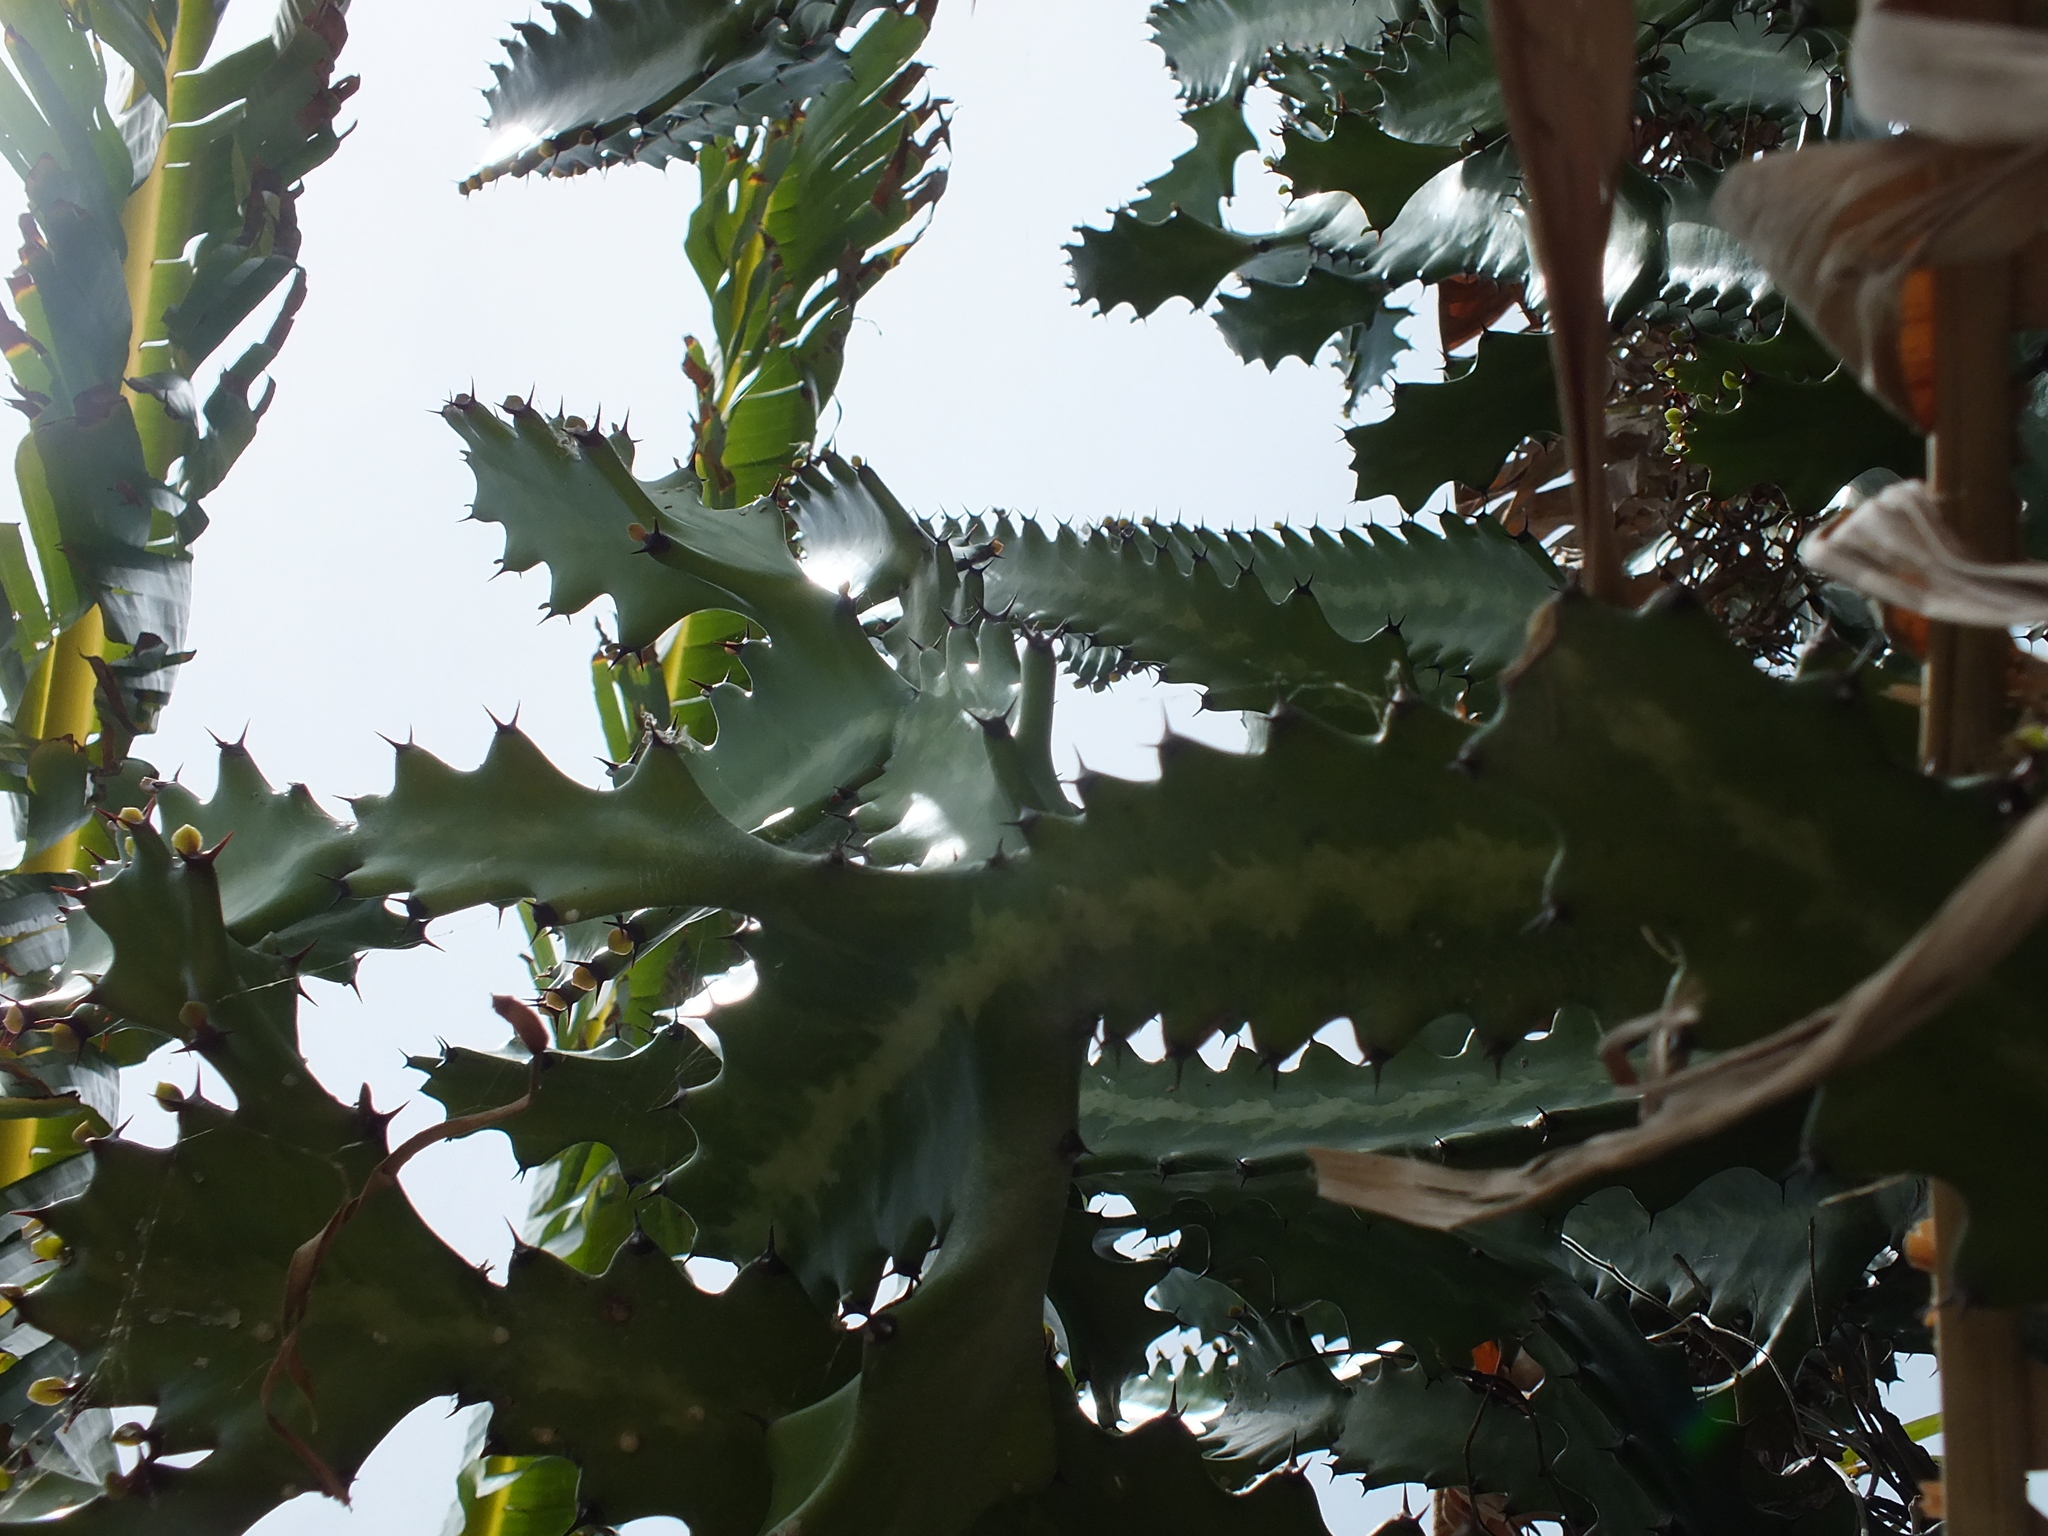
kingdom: Plantae
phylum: Tracheophyta
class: Magnoliopsida
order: Malpighiales
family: Euphorbiaceae
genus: Euphorbia
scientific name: Euphorbia lactea
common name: Mottled spurge
